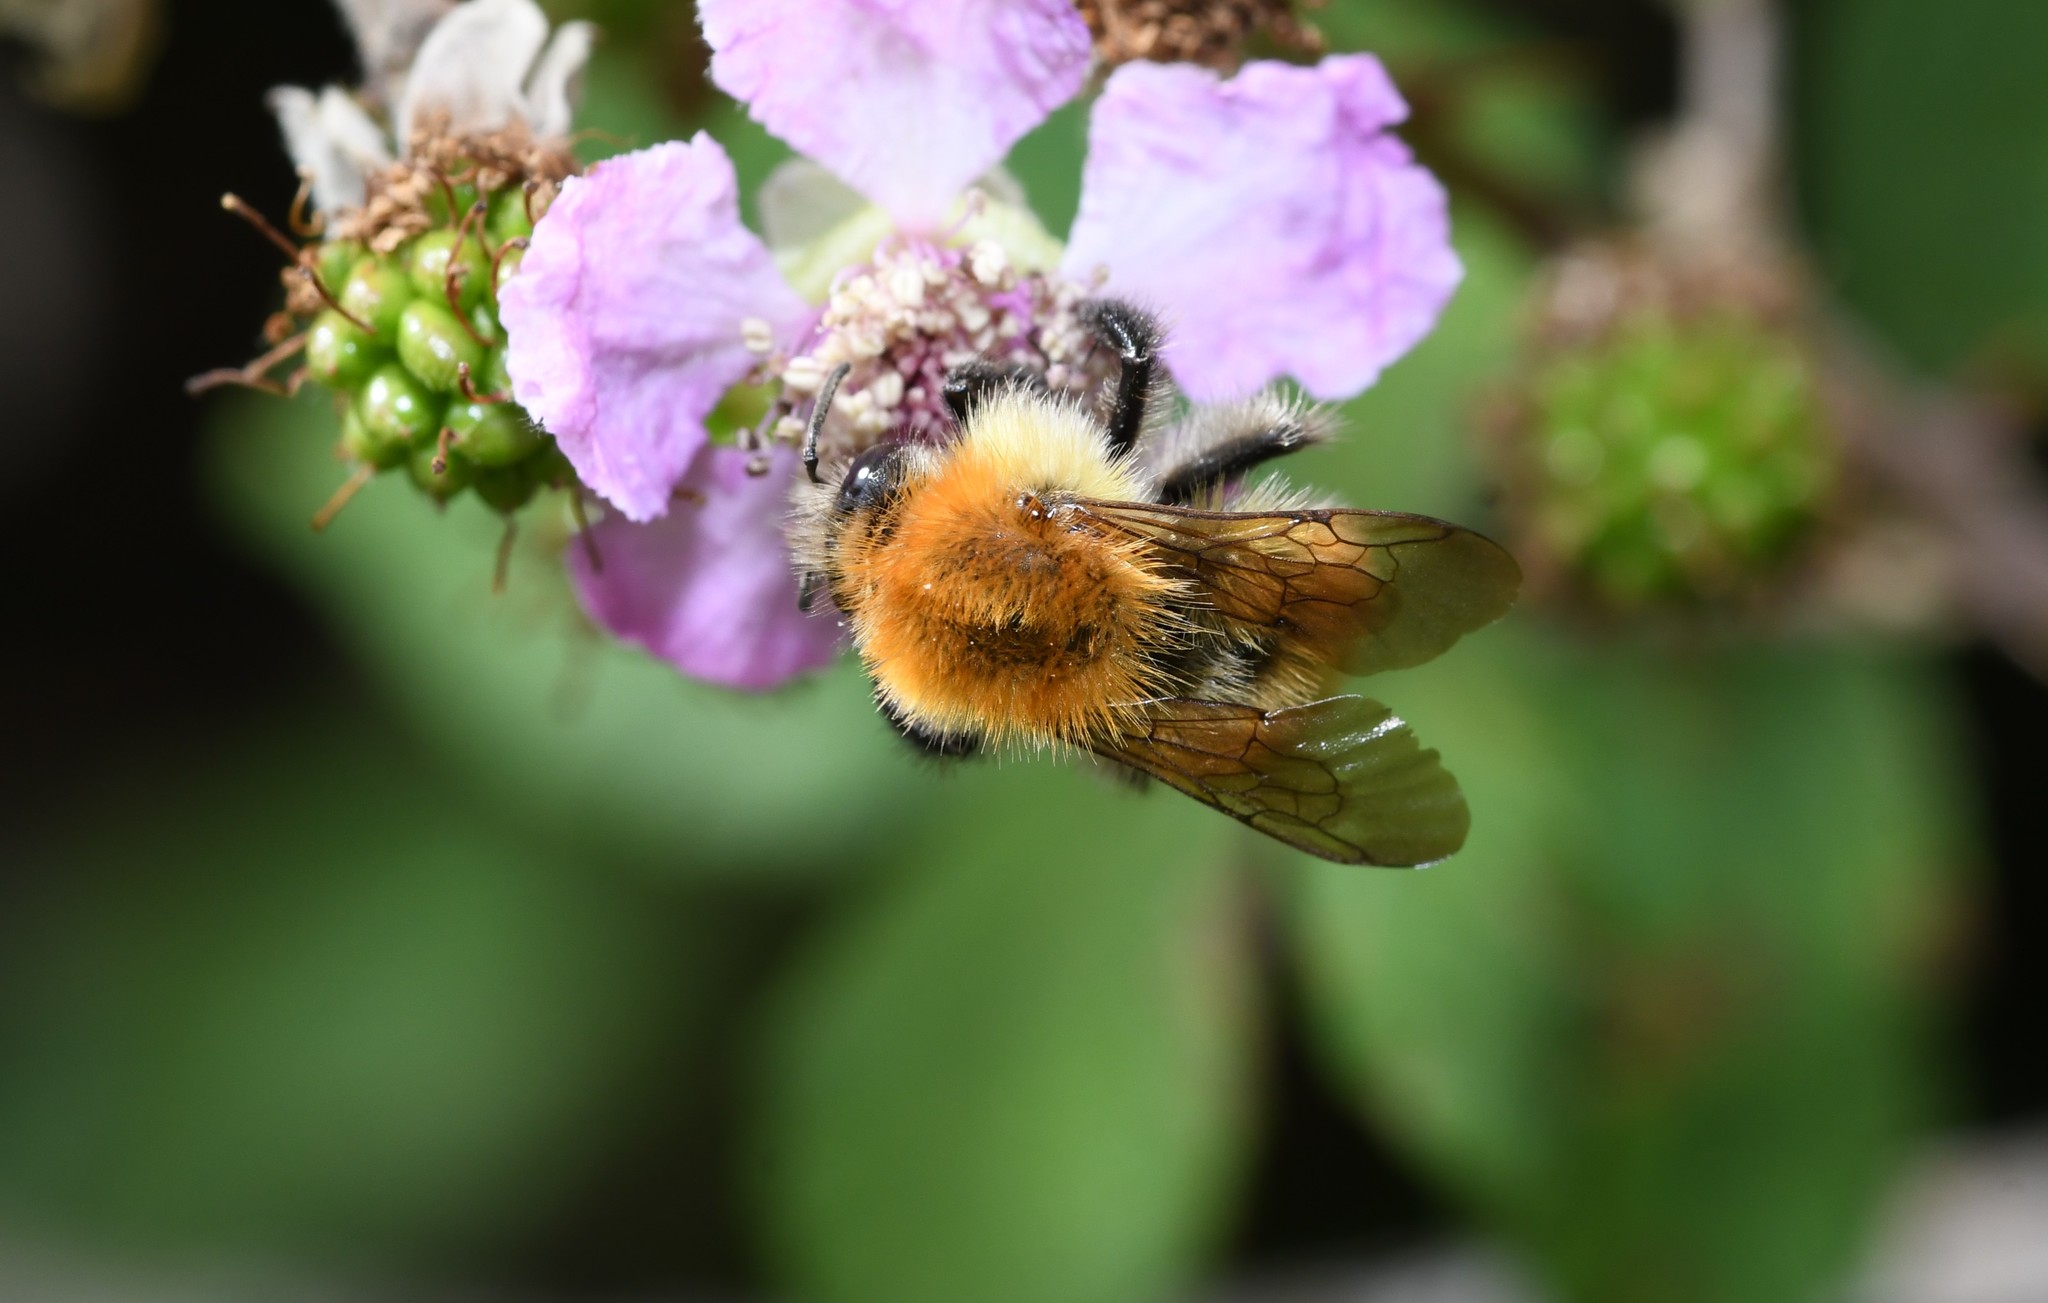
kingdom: Animalia
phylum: Arthropoda
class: Insecta
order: Hymenoptera
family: Apidae
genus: Bombus
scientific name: Bombus pascuorum
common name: Common carder bee
